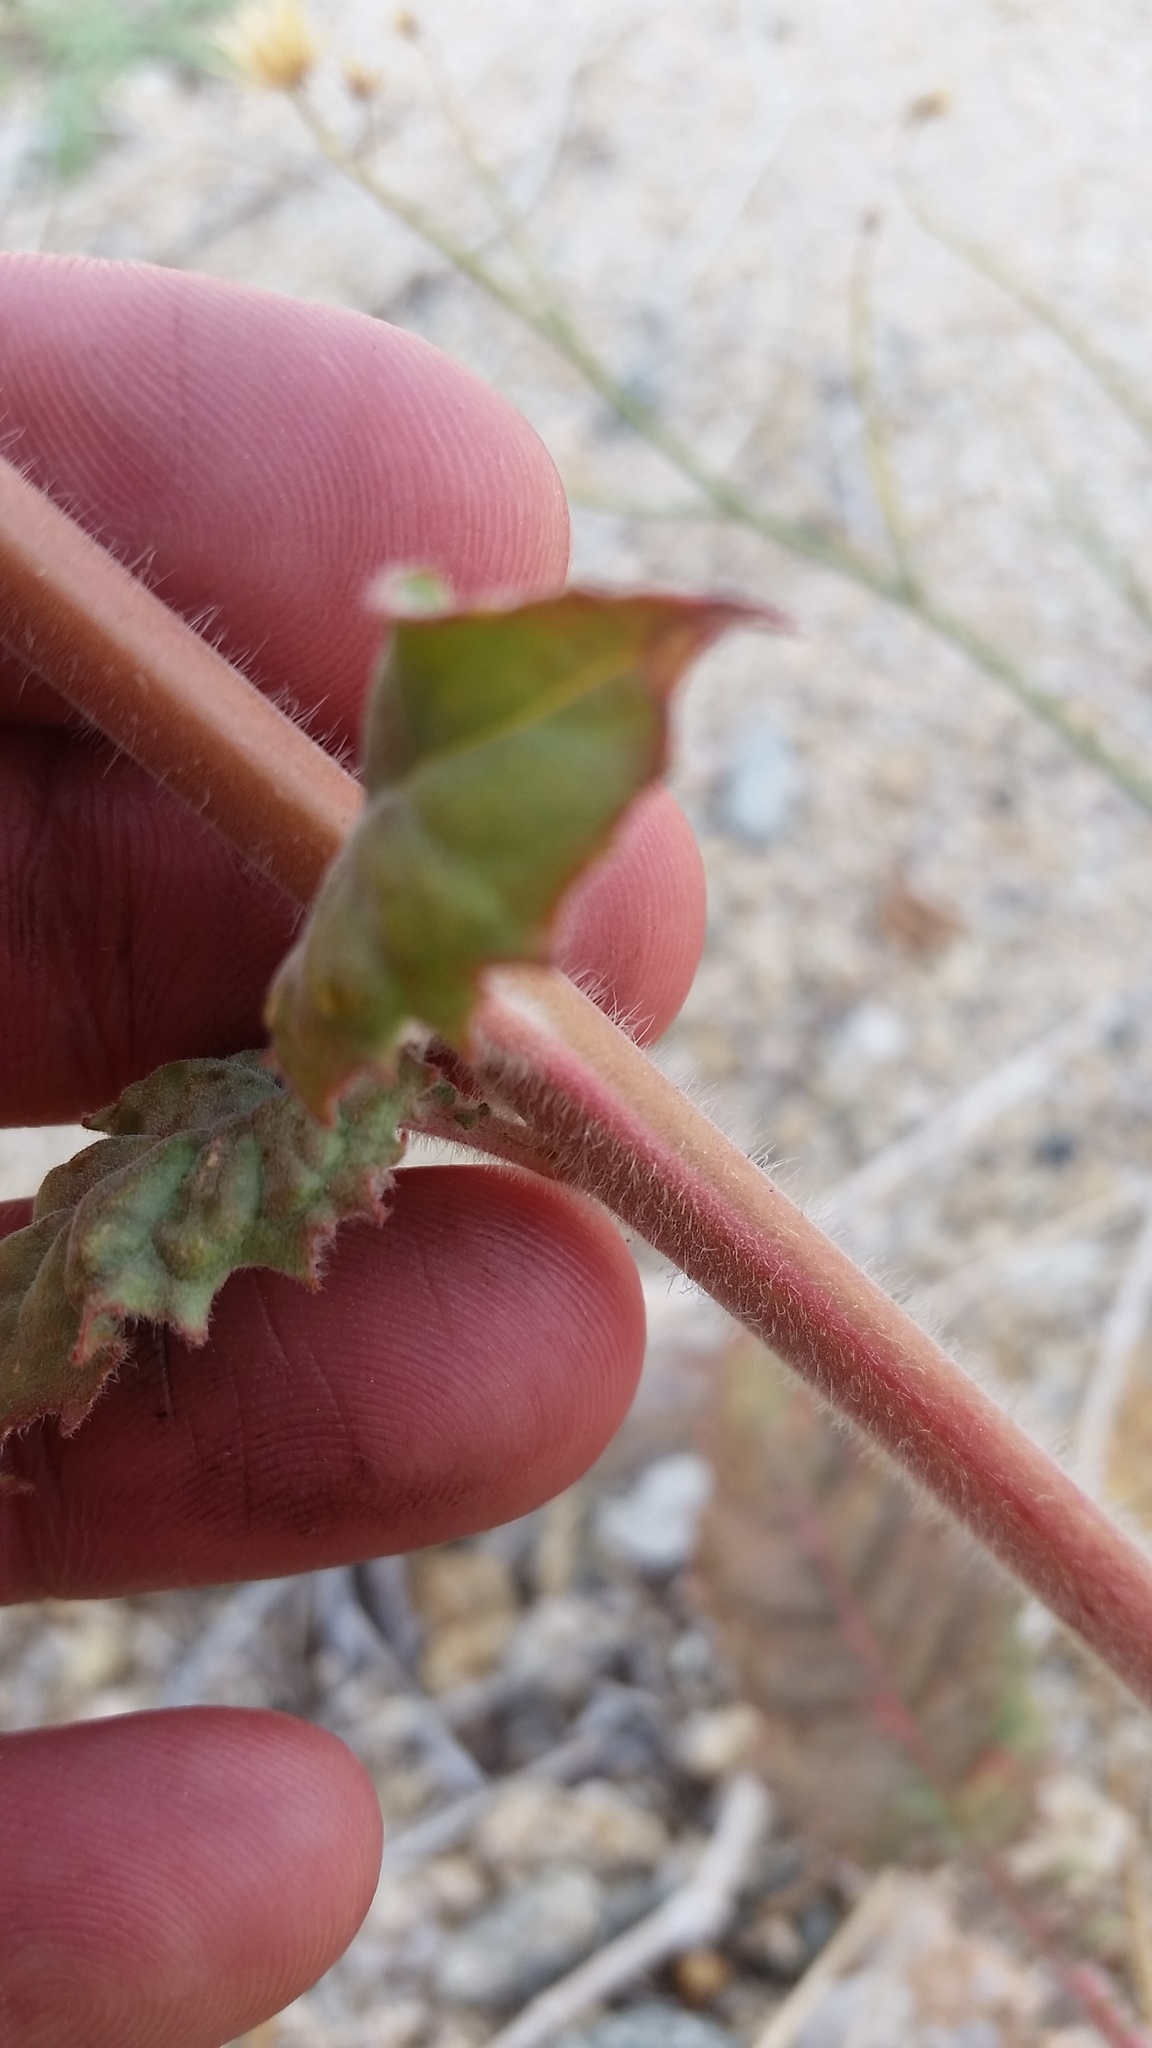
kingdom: Plantae
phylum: Tracheophyta
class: Magnoliopsida
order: Myrtales
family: Onagraceae
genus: Chylismia
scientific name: Chylismia brevipes
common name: Yellow cups
